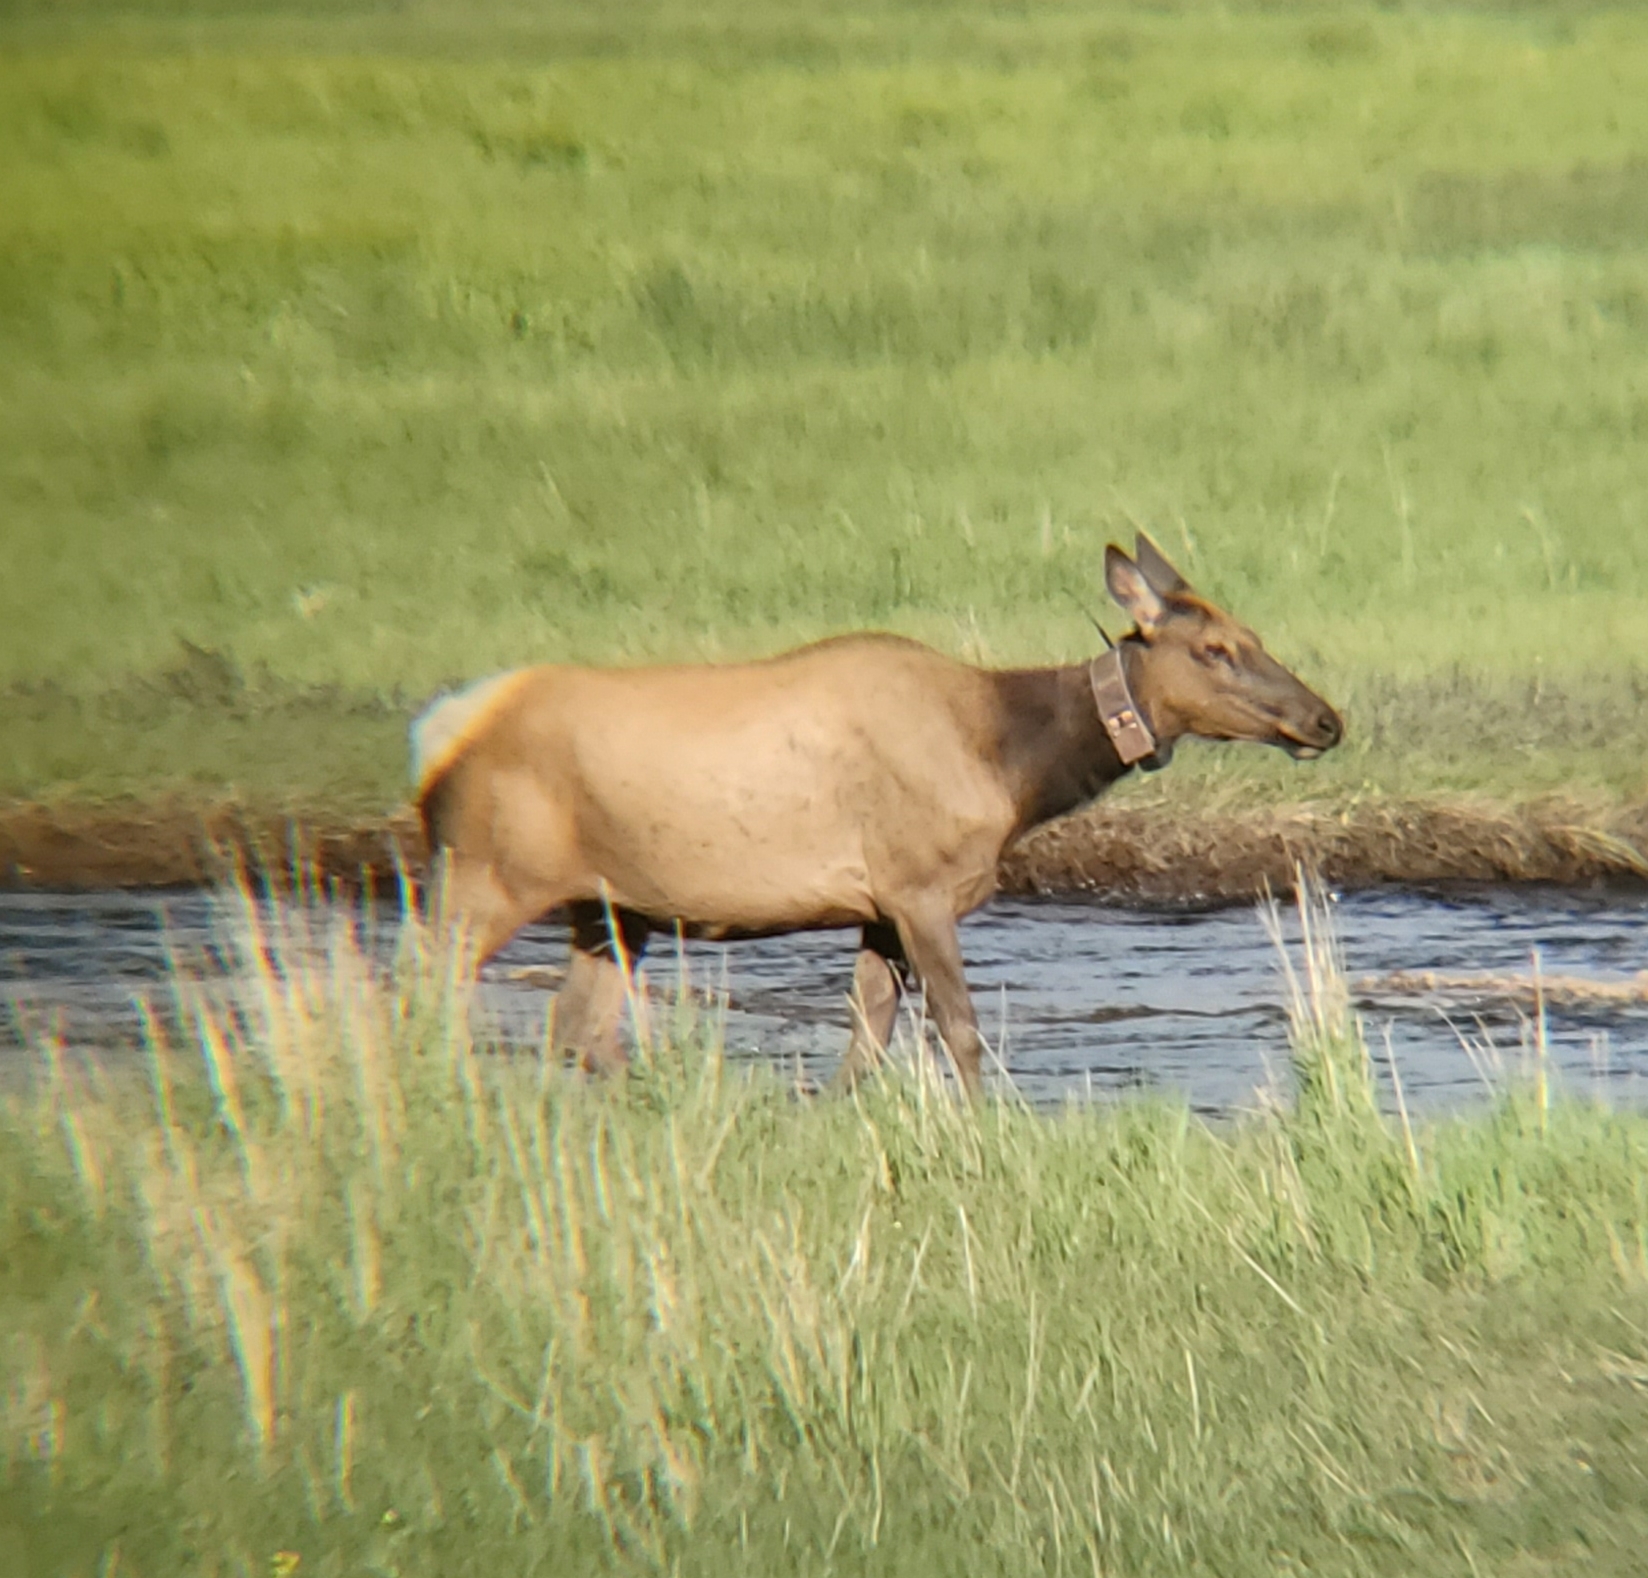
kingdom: Animalia
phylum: Chordata
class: Mammalia
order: Artiodactyla
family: Cervidae
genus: Cervus
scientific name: Cervus elaphus
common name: Red deer
